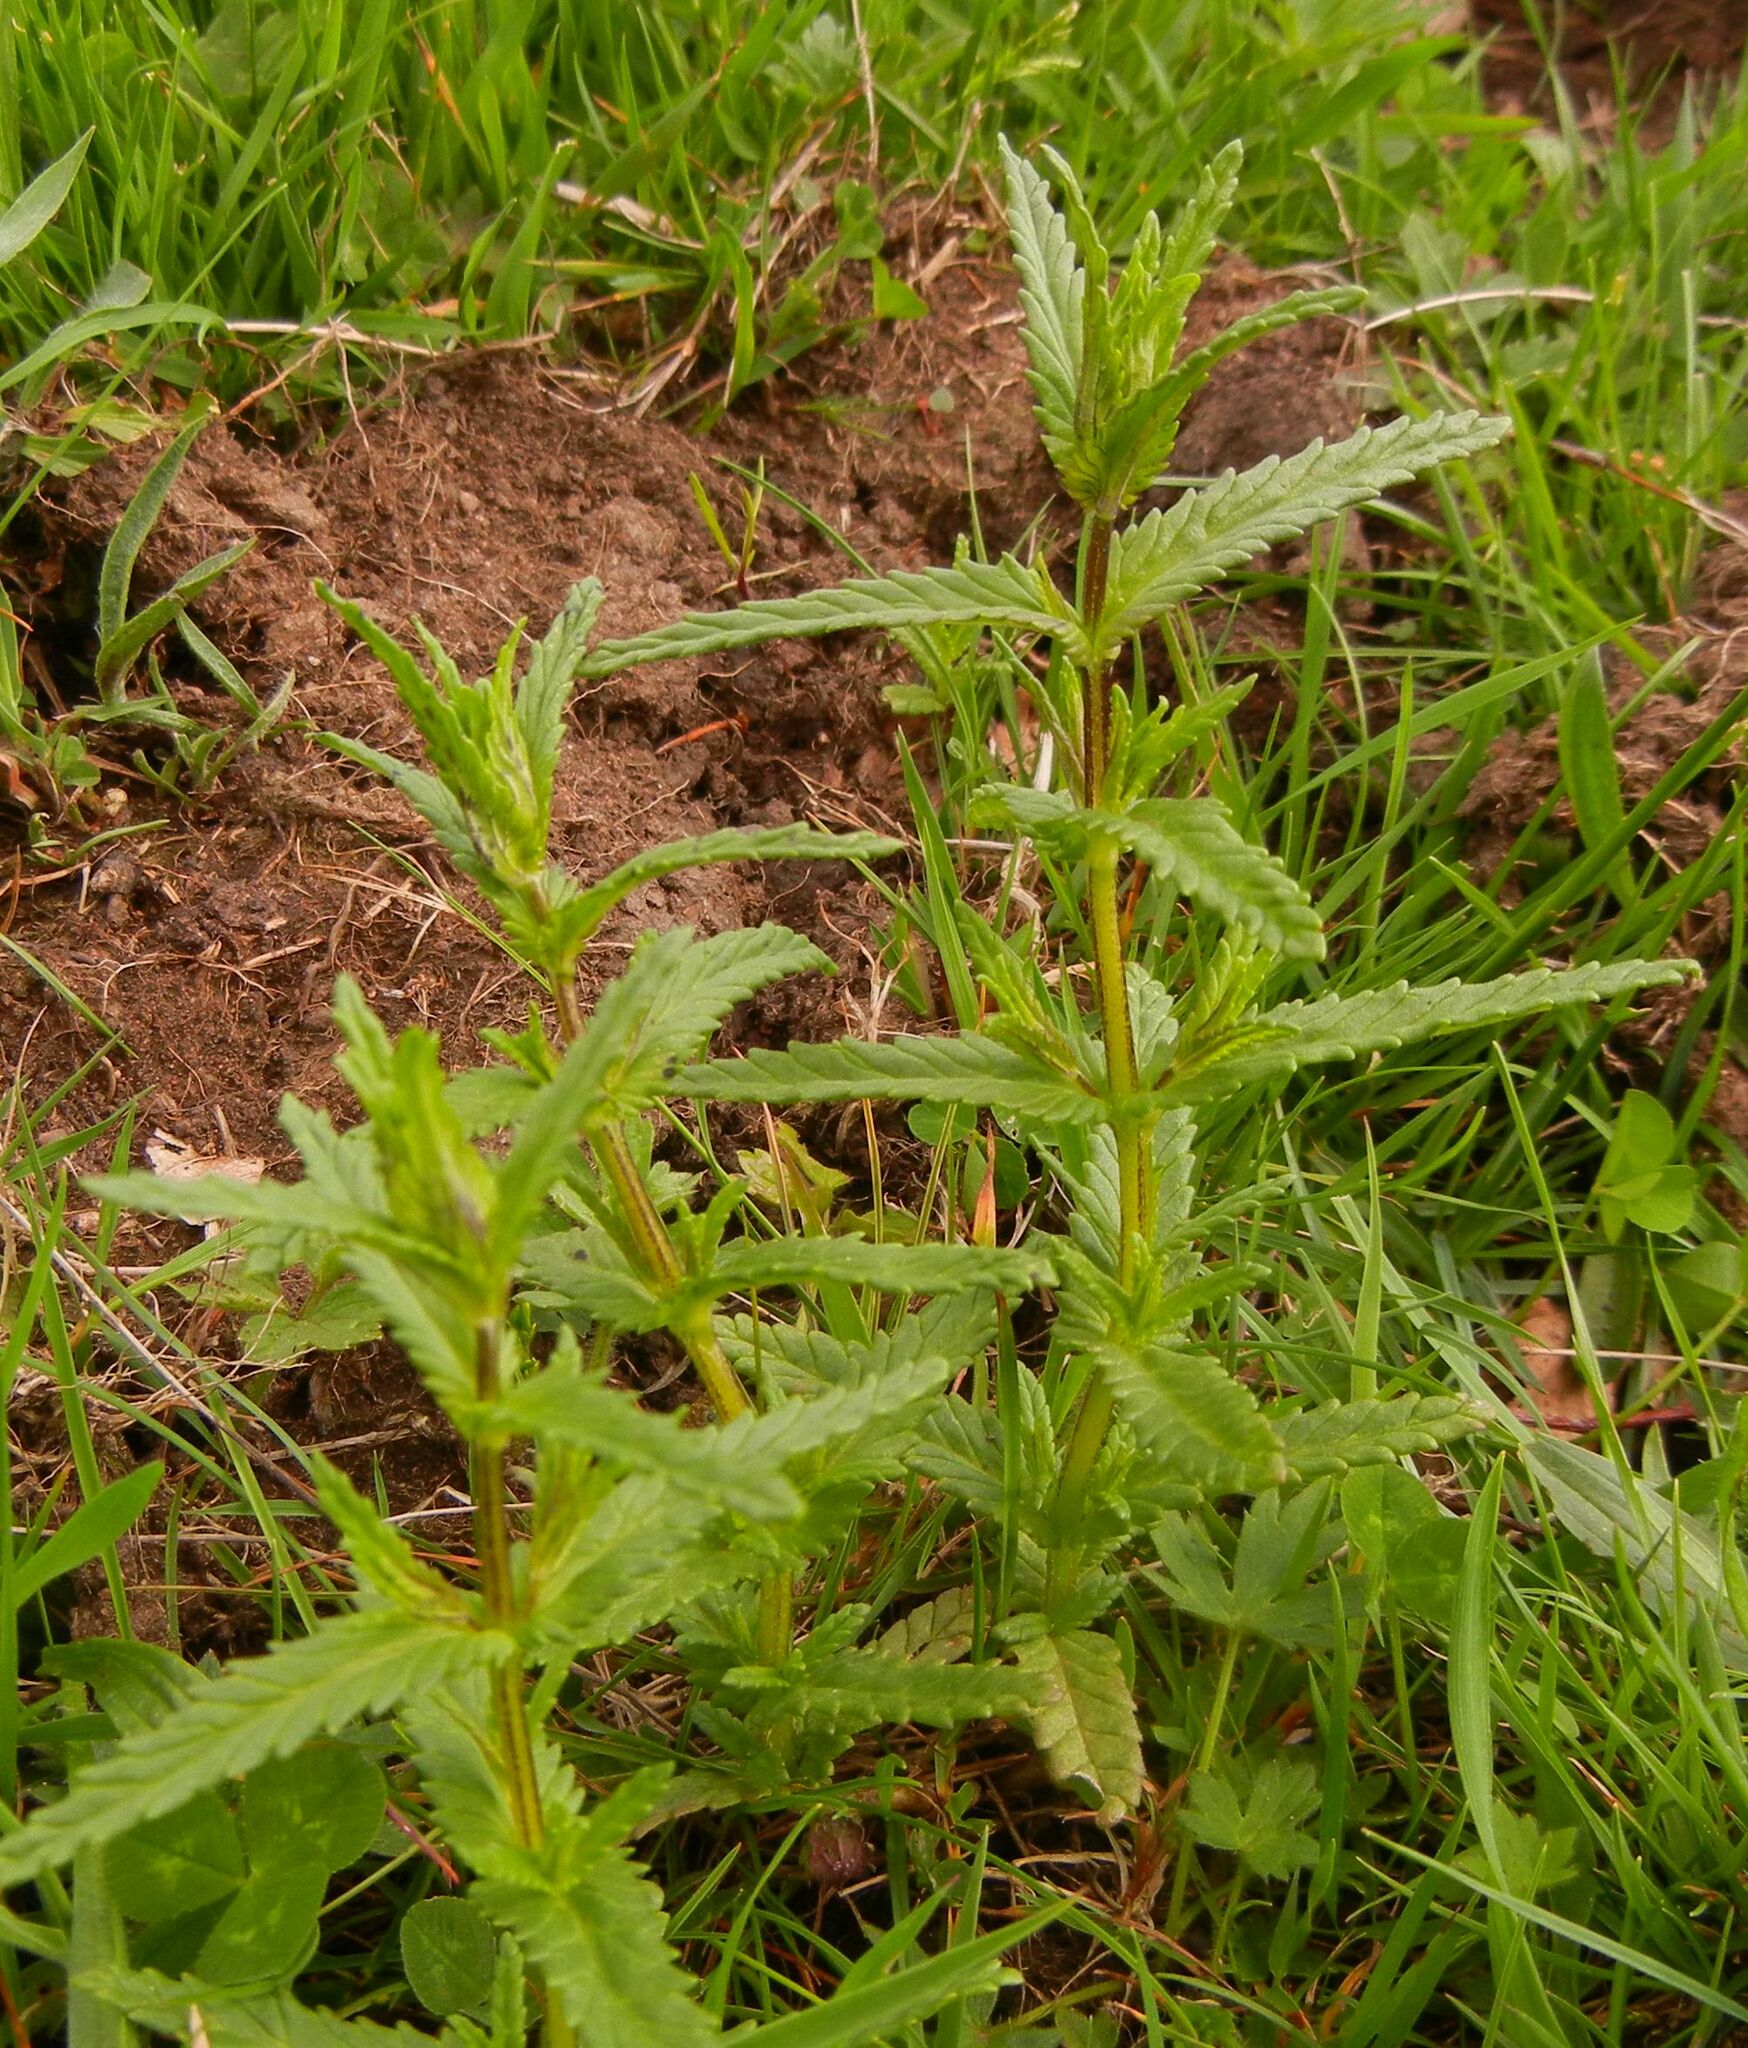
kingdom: Plantae
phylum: Tracheophyta
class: Magnoliopsida
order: Lamiales
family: Orobanchaceae
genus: Rhinanthus
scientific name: Rhinanthus minor
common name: Yellow-rattle
